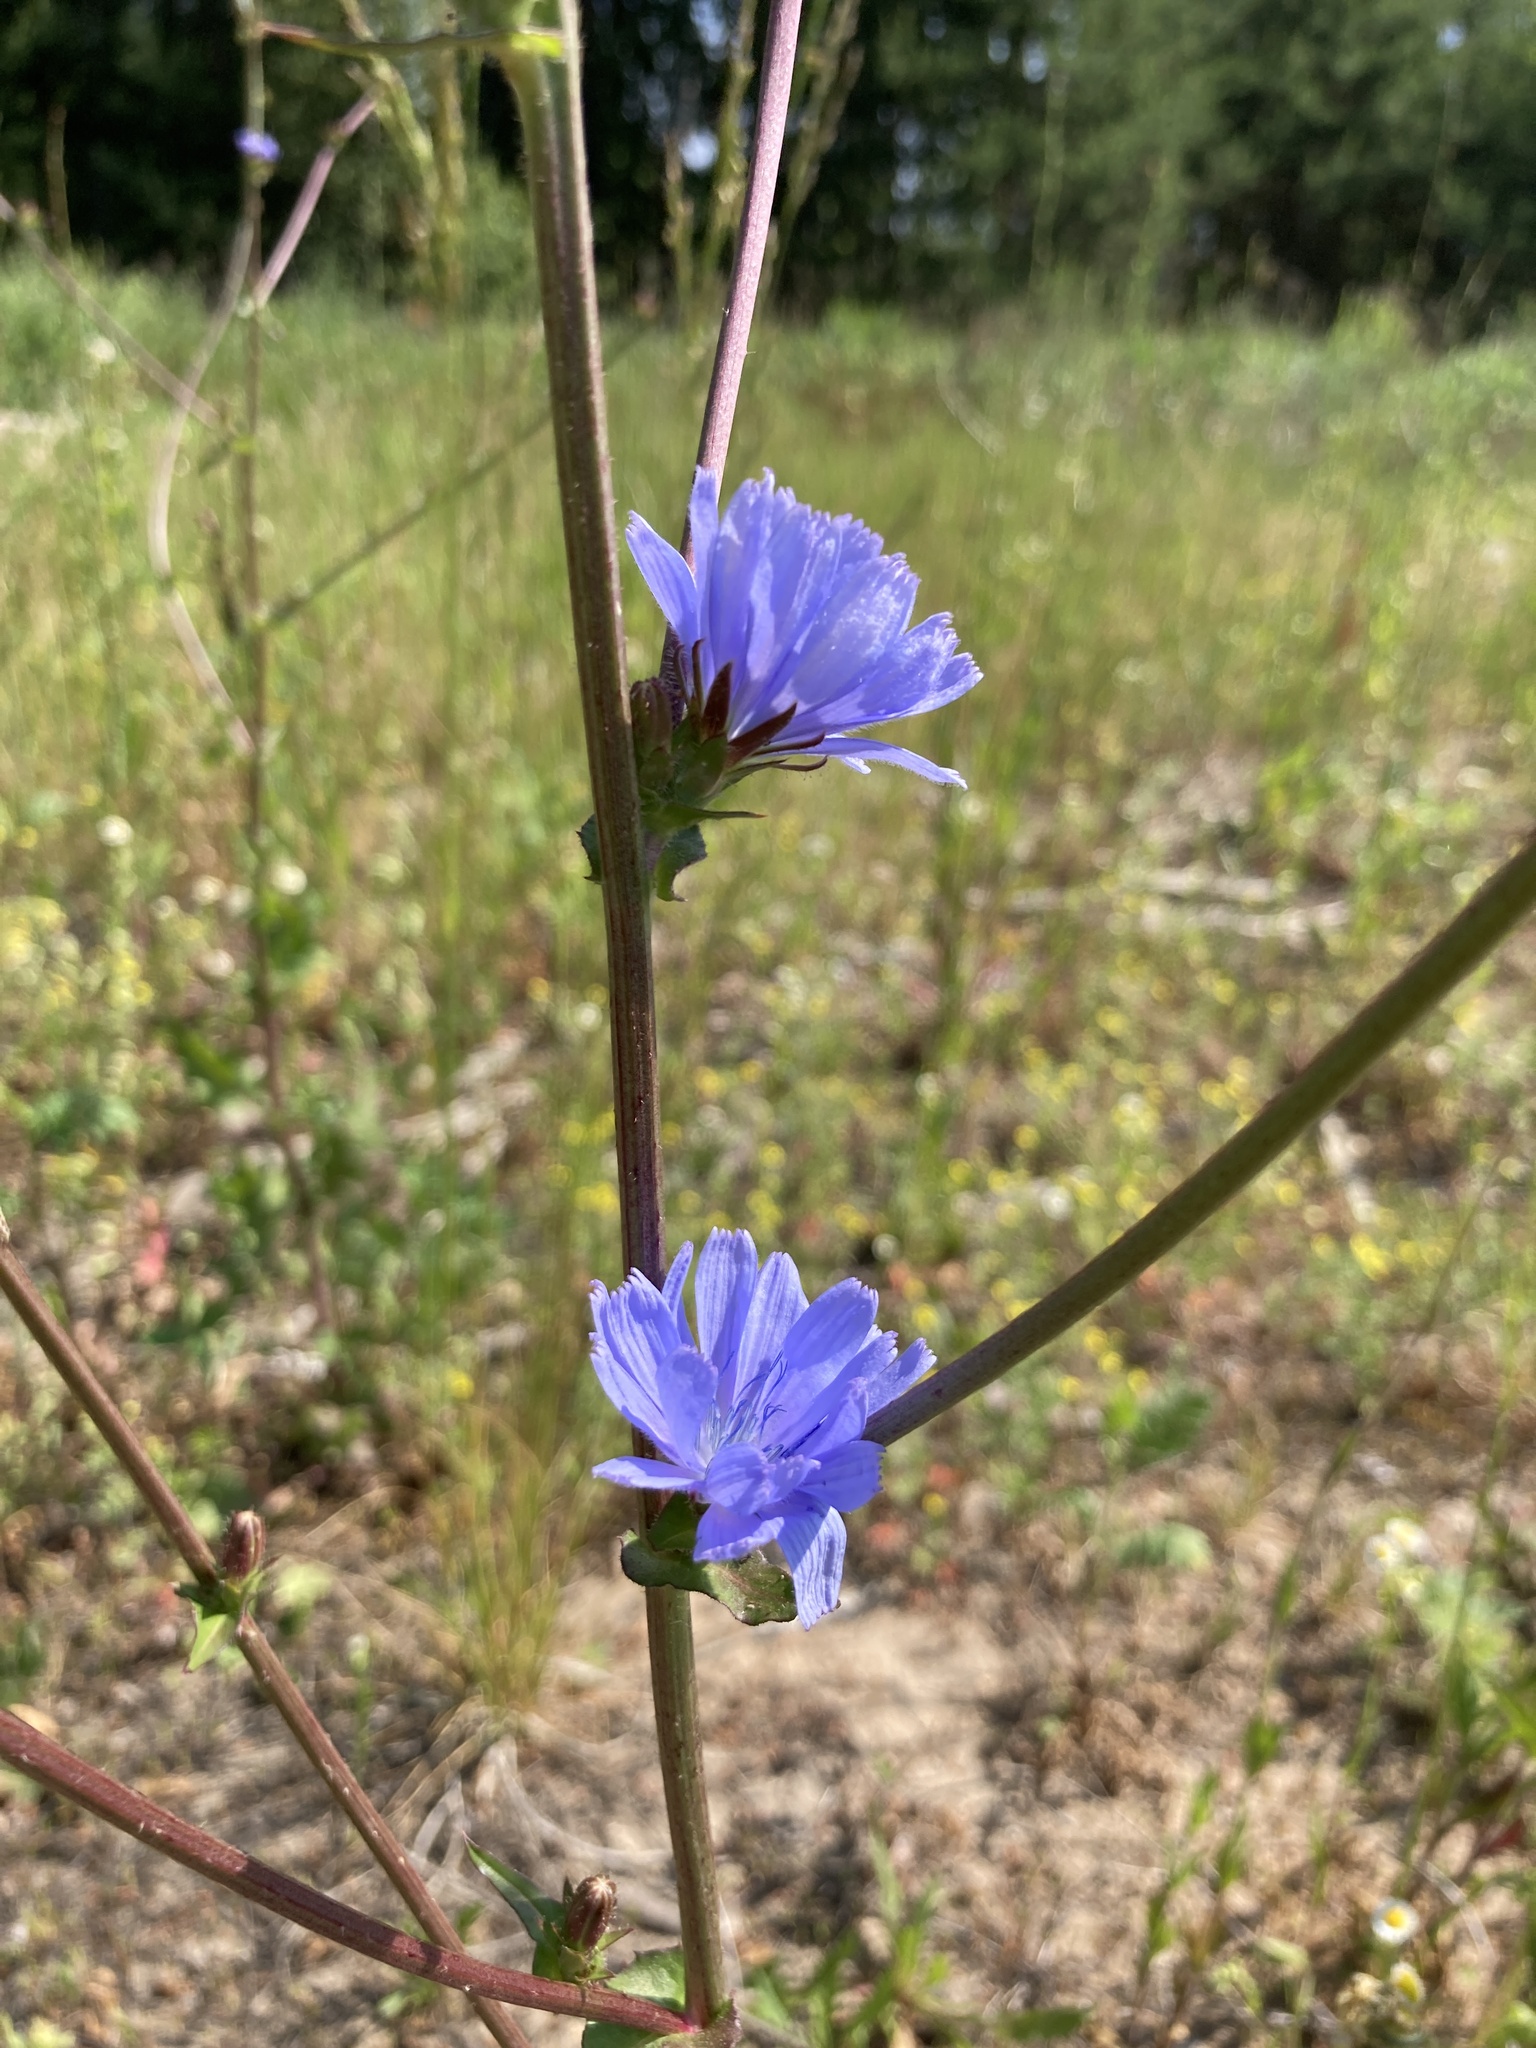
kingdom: Plantae
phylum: Tracheophyta
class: Magnoliopsida
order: Asterales
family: Asteraceae
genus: Cichorium
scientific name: Cichorium intybus
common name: Chicory
